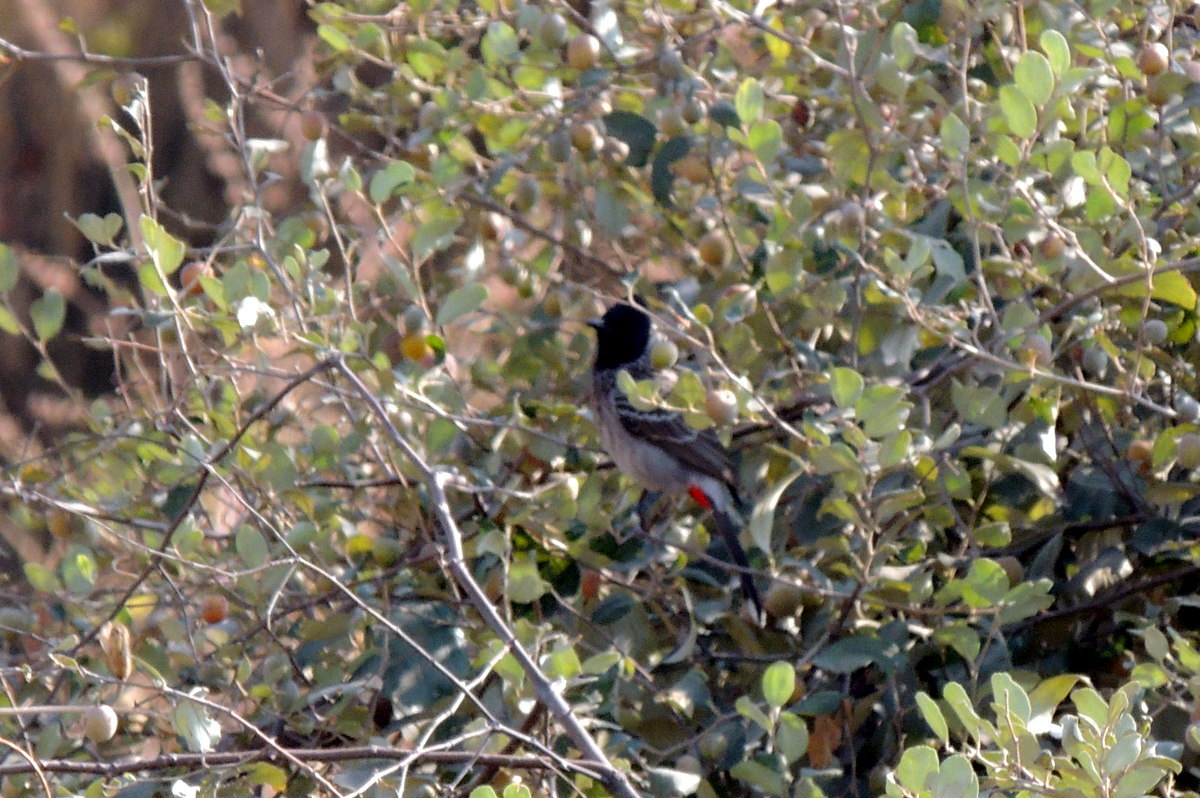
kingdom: Animalia
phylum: Chordata
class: Aves
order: Passeriformes
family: Pycnonotidae
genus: Pycnonotus
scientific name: Pycnonotus cafer
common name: Red-vented bulbul
